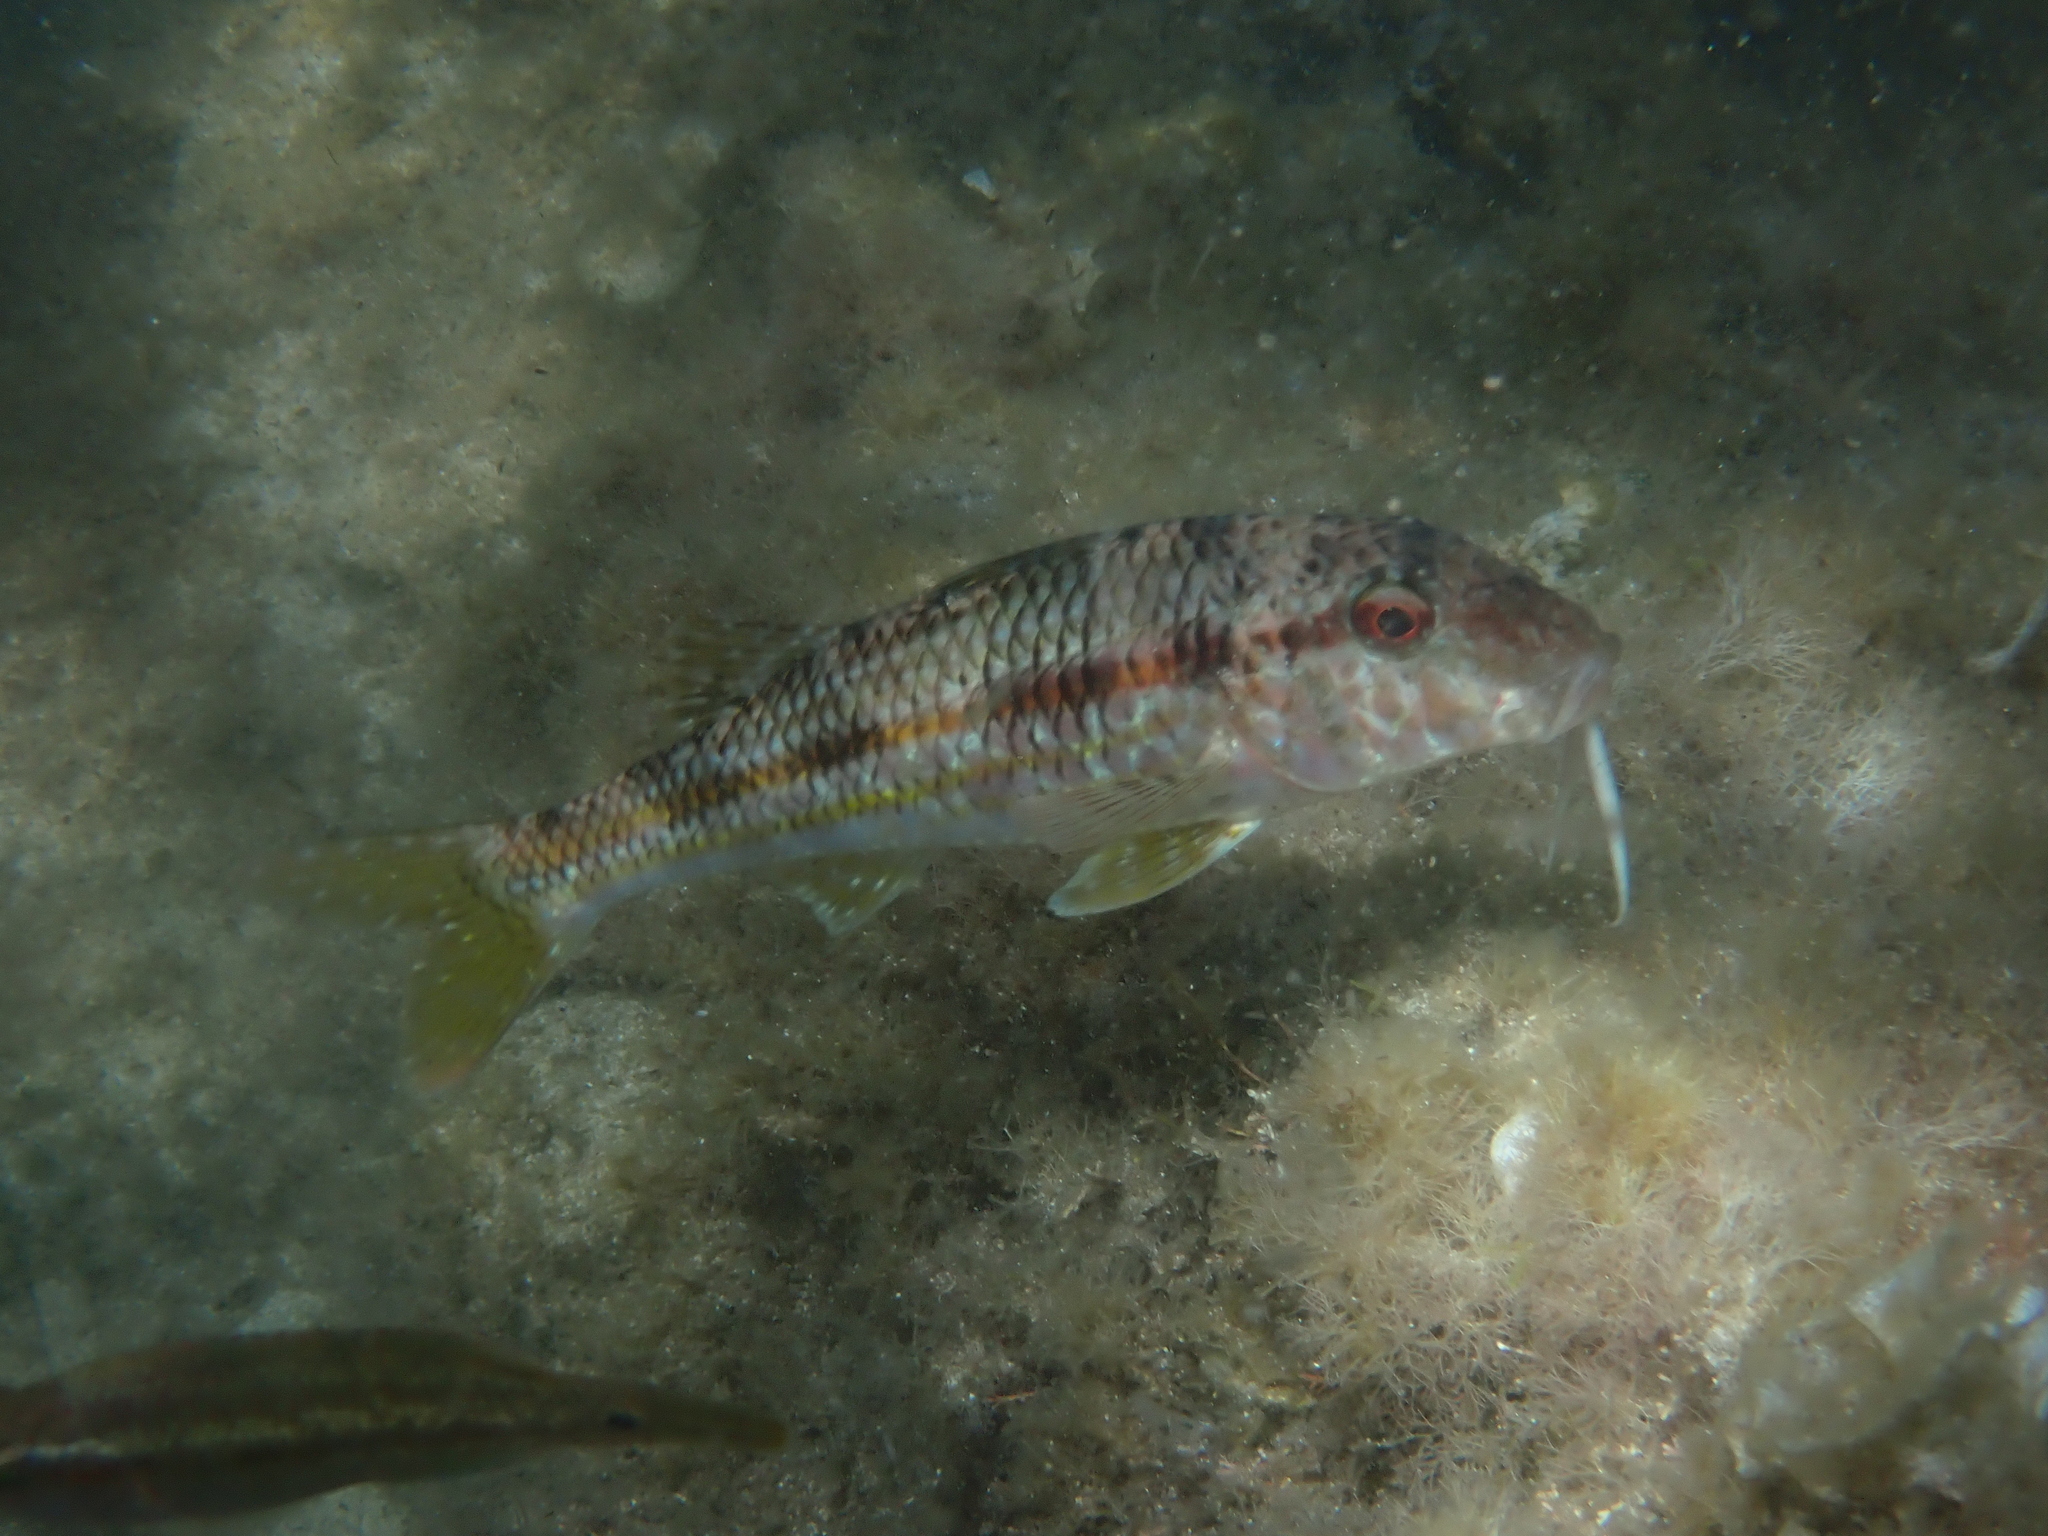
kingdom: Animalia
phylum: Chordata
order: Perciformes
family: Mullidae
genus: Mullus
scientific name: Mullus surmuletus
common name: Red mullet
